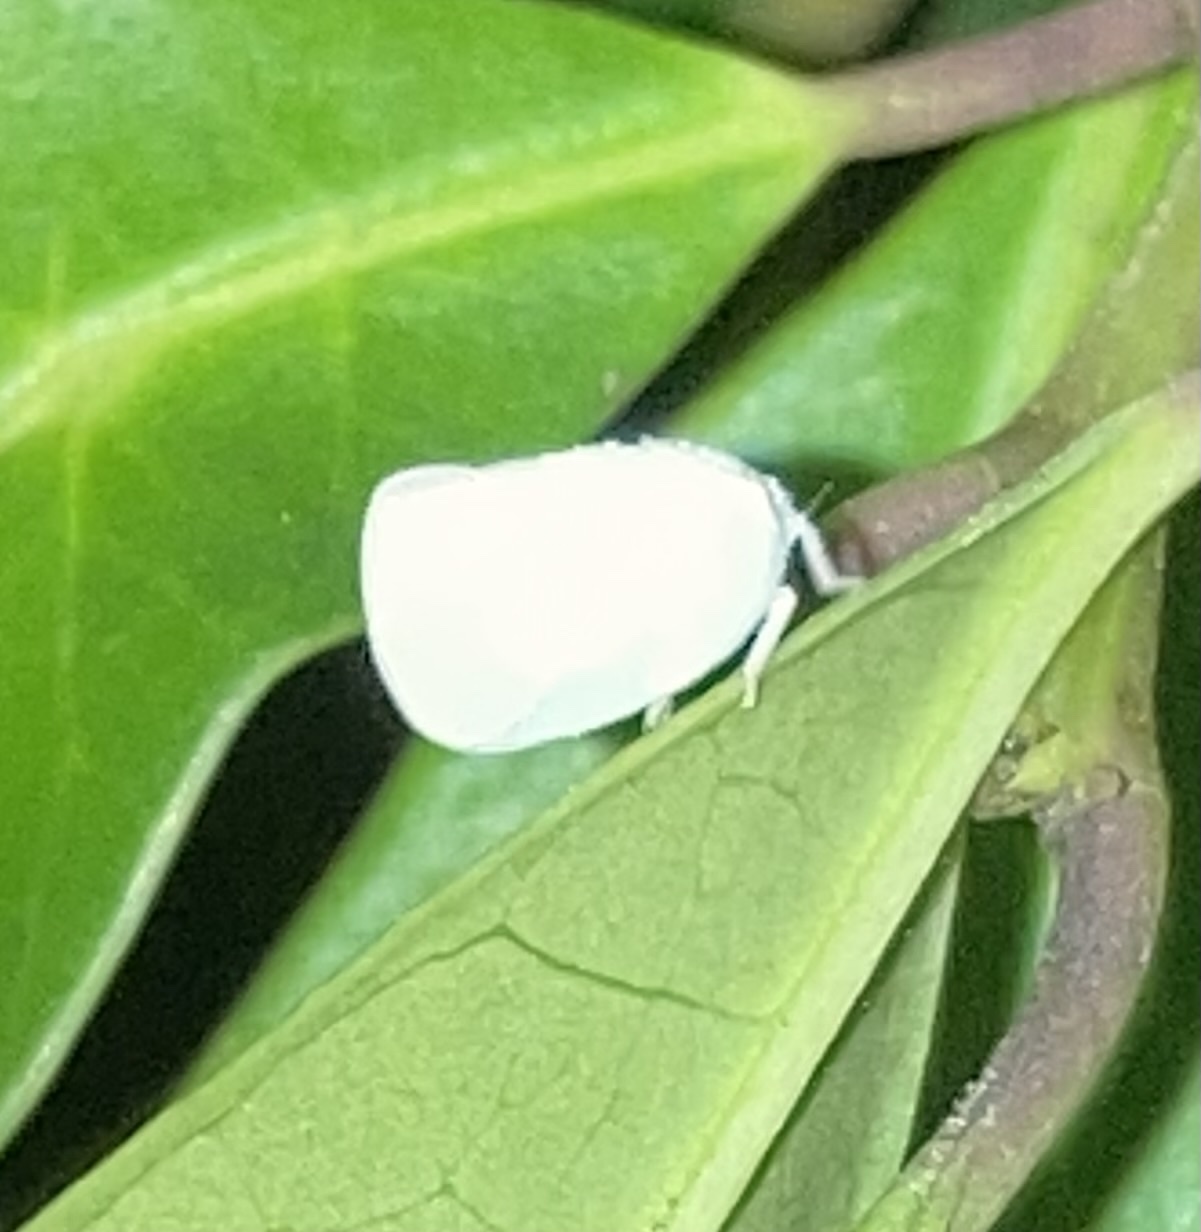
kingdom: Animalia
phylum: Arthropoda
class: Insecta
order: Hemiptera
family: Flatidae
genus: Ormenoides
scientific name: Ormenoides venusta
